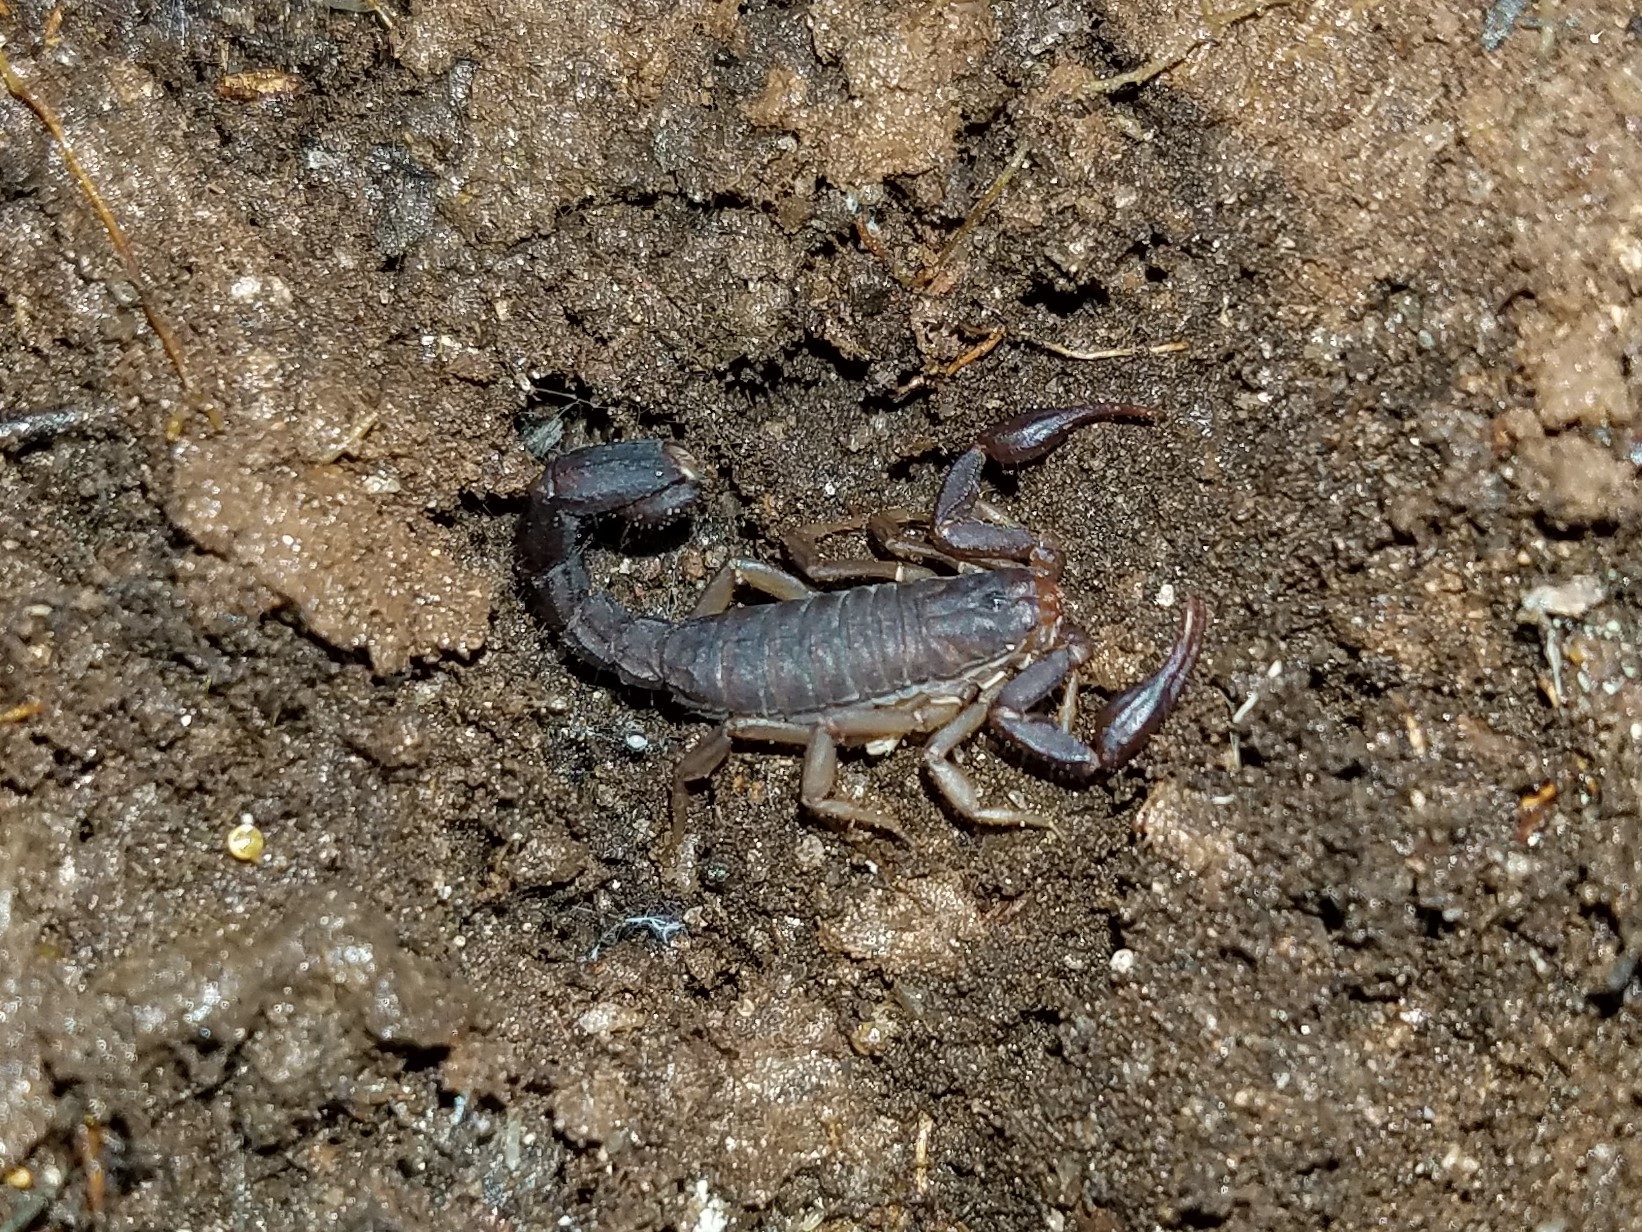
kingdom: Animalia
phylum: Arthropoda
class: Arachnida
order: Scorpiones
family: Vaejovidae
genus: Vaejovis
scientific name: Vaejovis carolinianus
